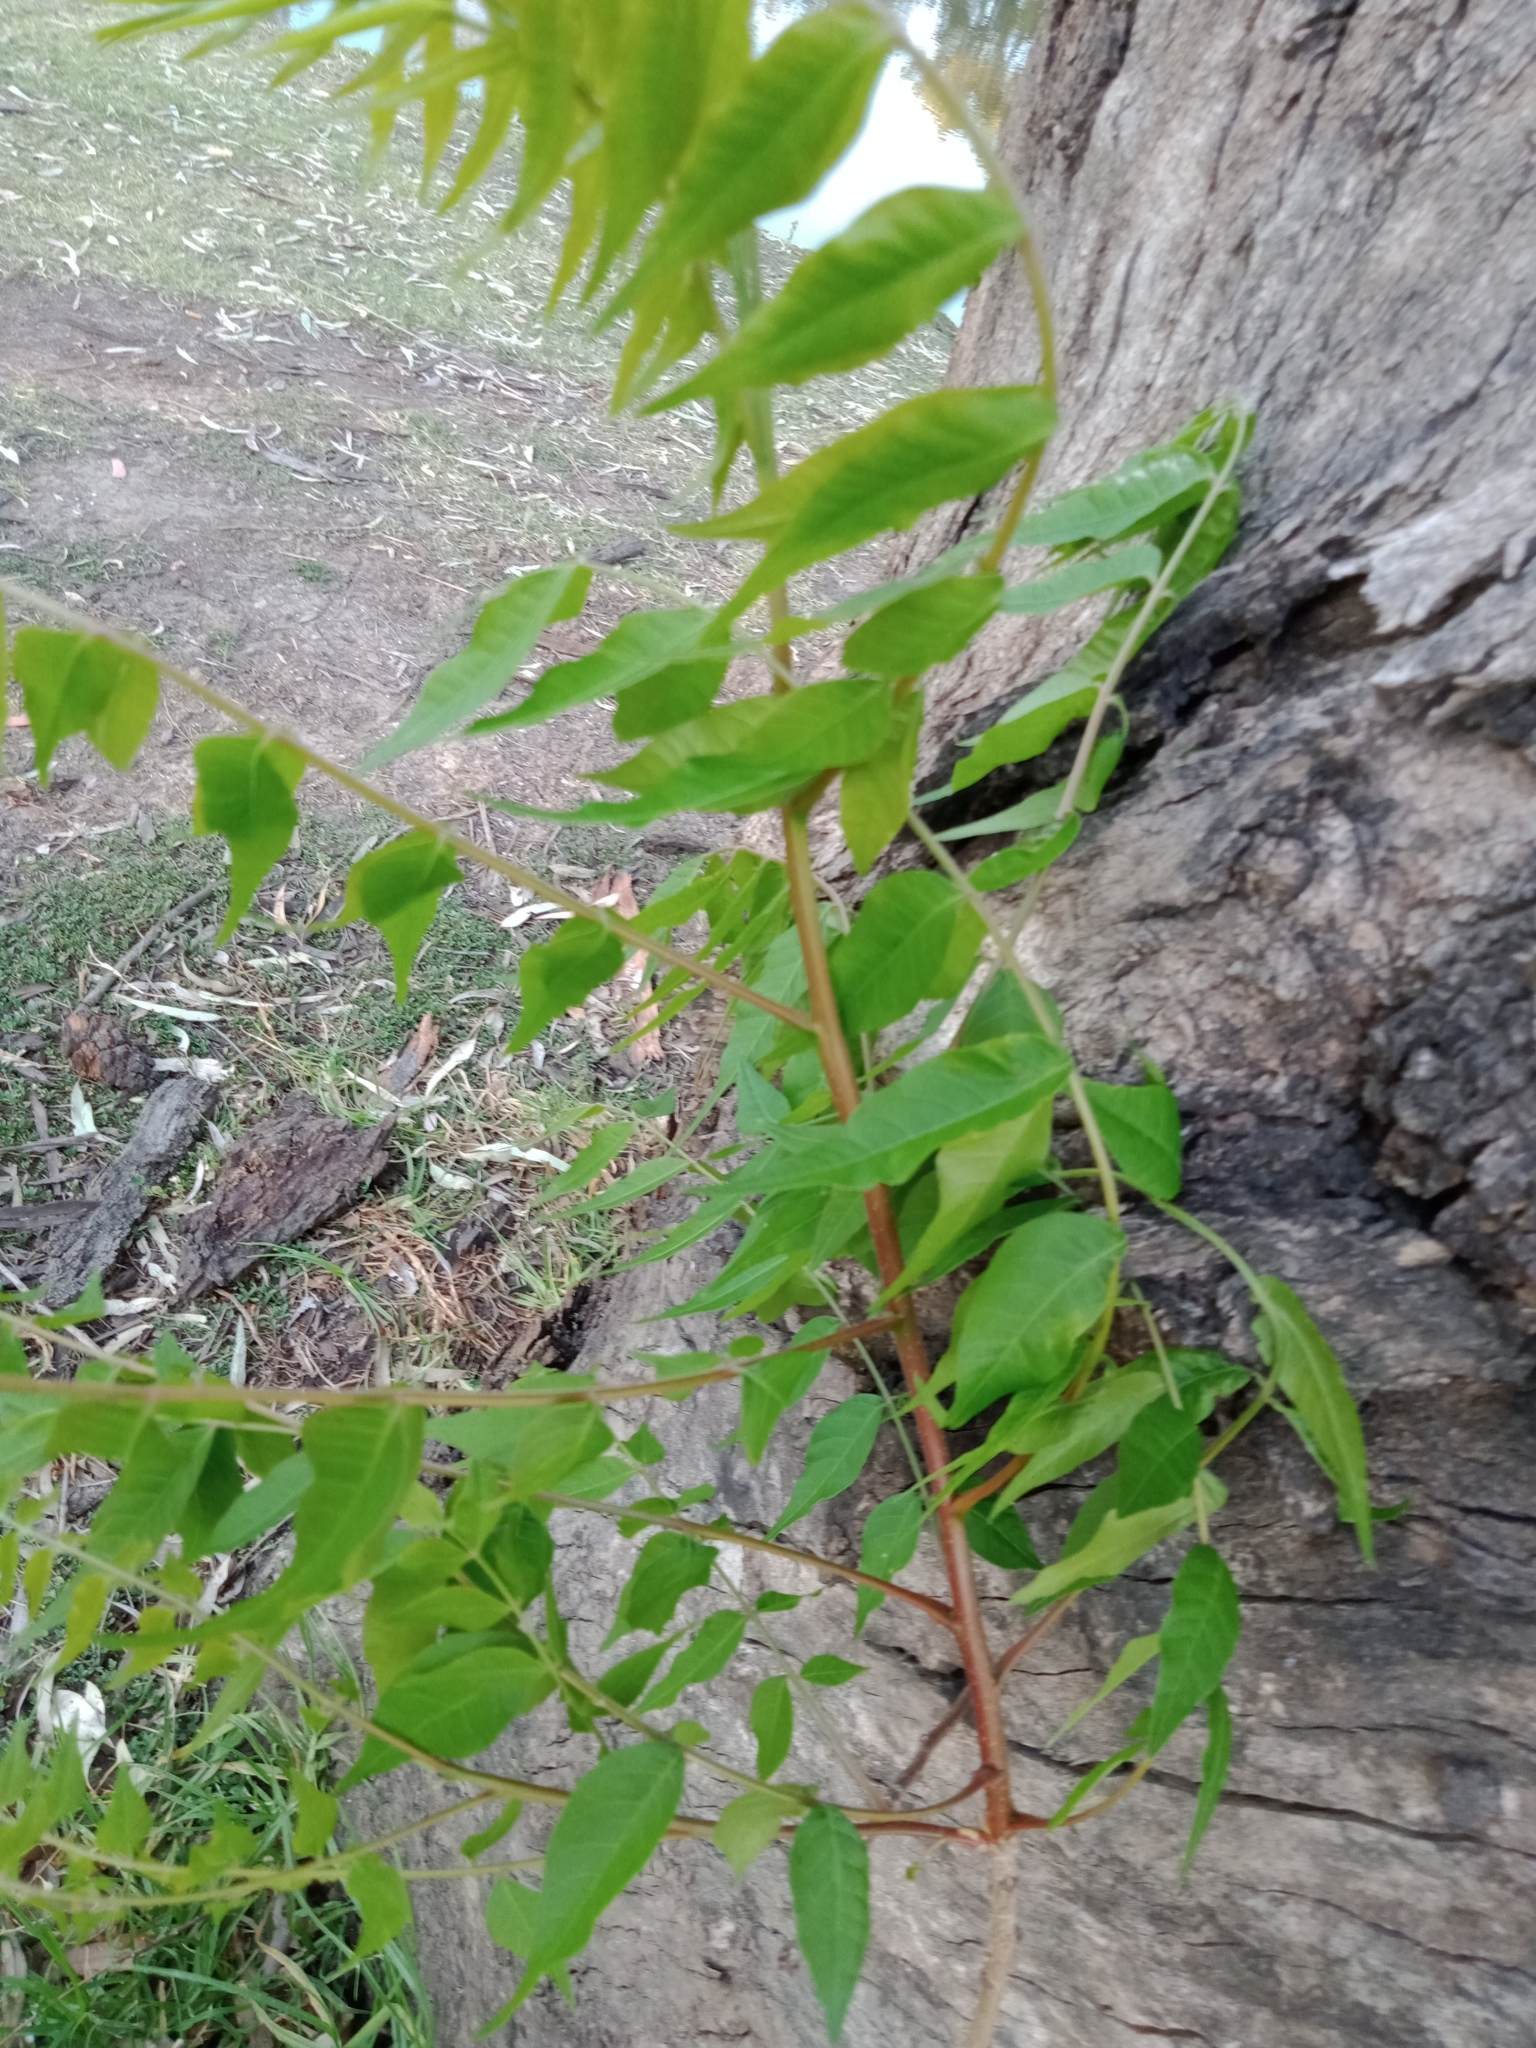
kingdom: Plantae
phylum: Tracheophyta
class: Magnoliopsida
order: Sapindales
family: Meliaceae
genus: Toona
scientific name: Toona ciliata
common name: Australian redcedar
